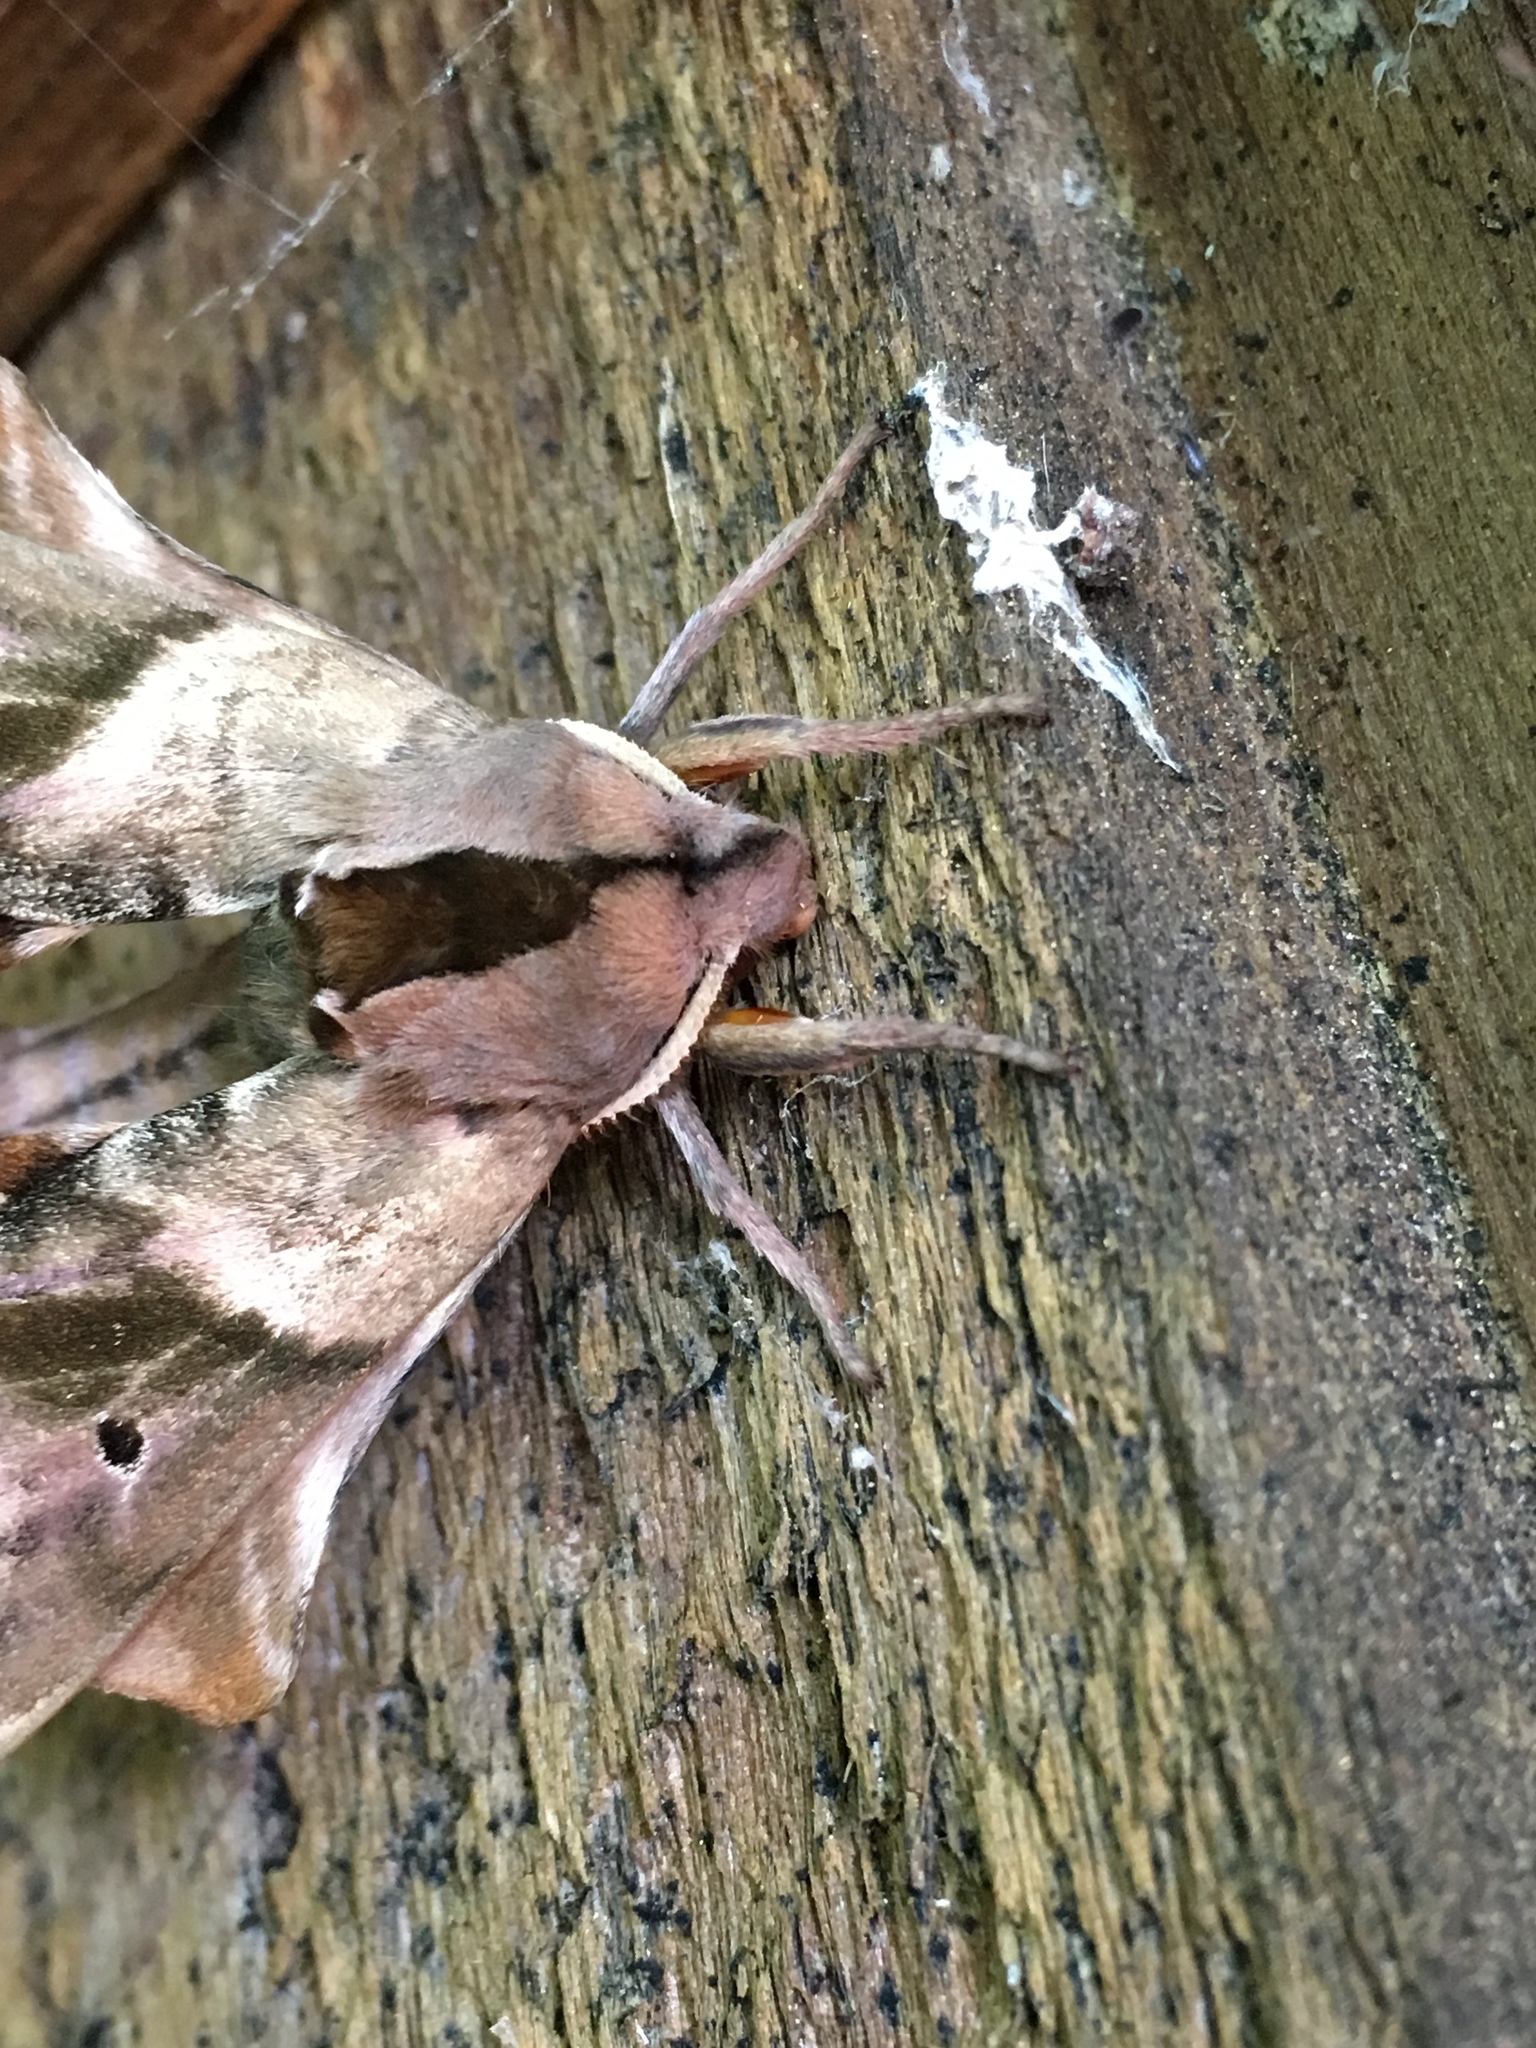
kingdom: Animalia
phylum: Arthropoda
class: Insecta
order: Lepidoptera
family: Sphingidae
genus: Paonias
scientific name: Paonias excaecata
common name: Blind-eyed sphinx
